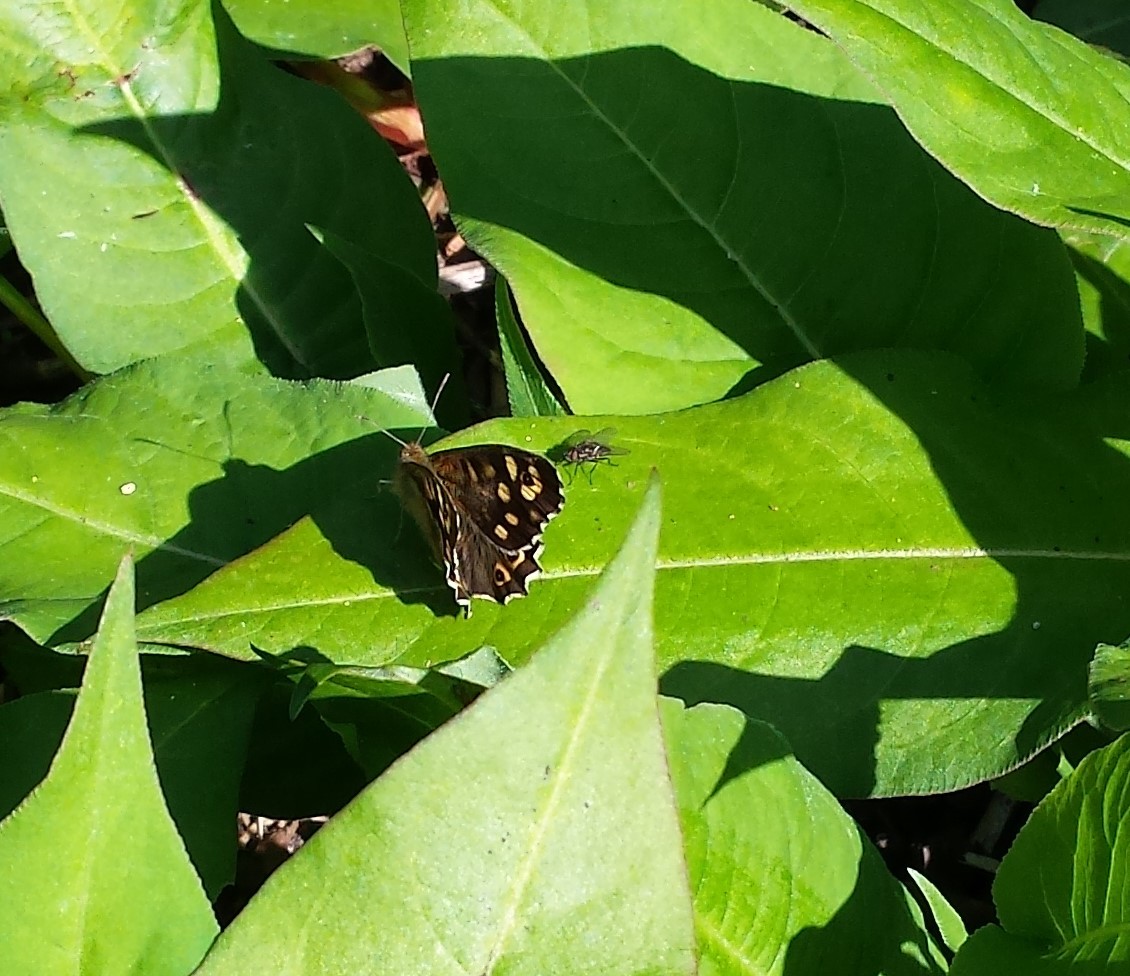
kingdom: Animalia
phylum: Arthropoda
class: Insecta
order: Lepidoptera
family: Nymphalidae
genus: Pararge
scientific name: Pararge aegeria
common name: Speckled wood
